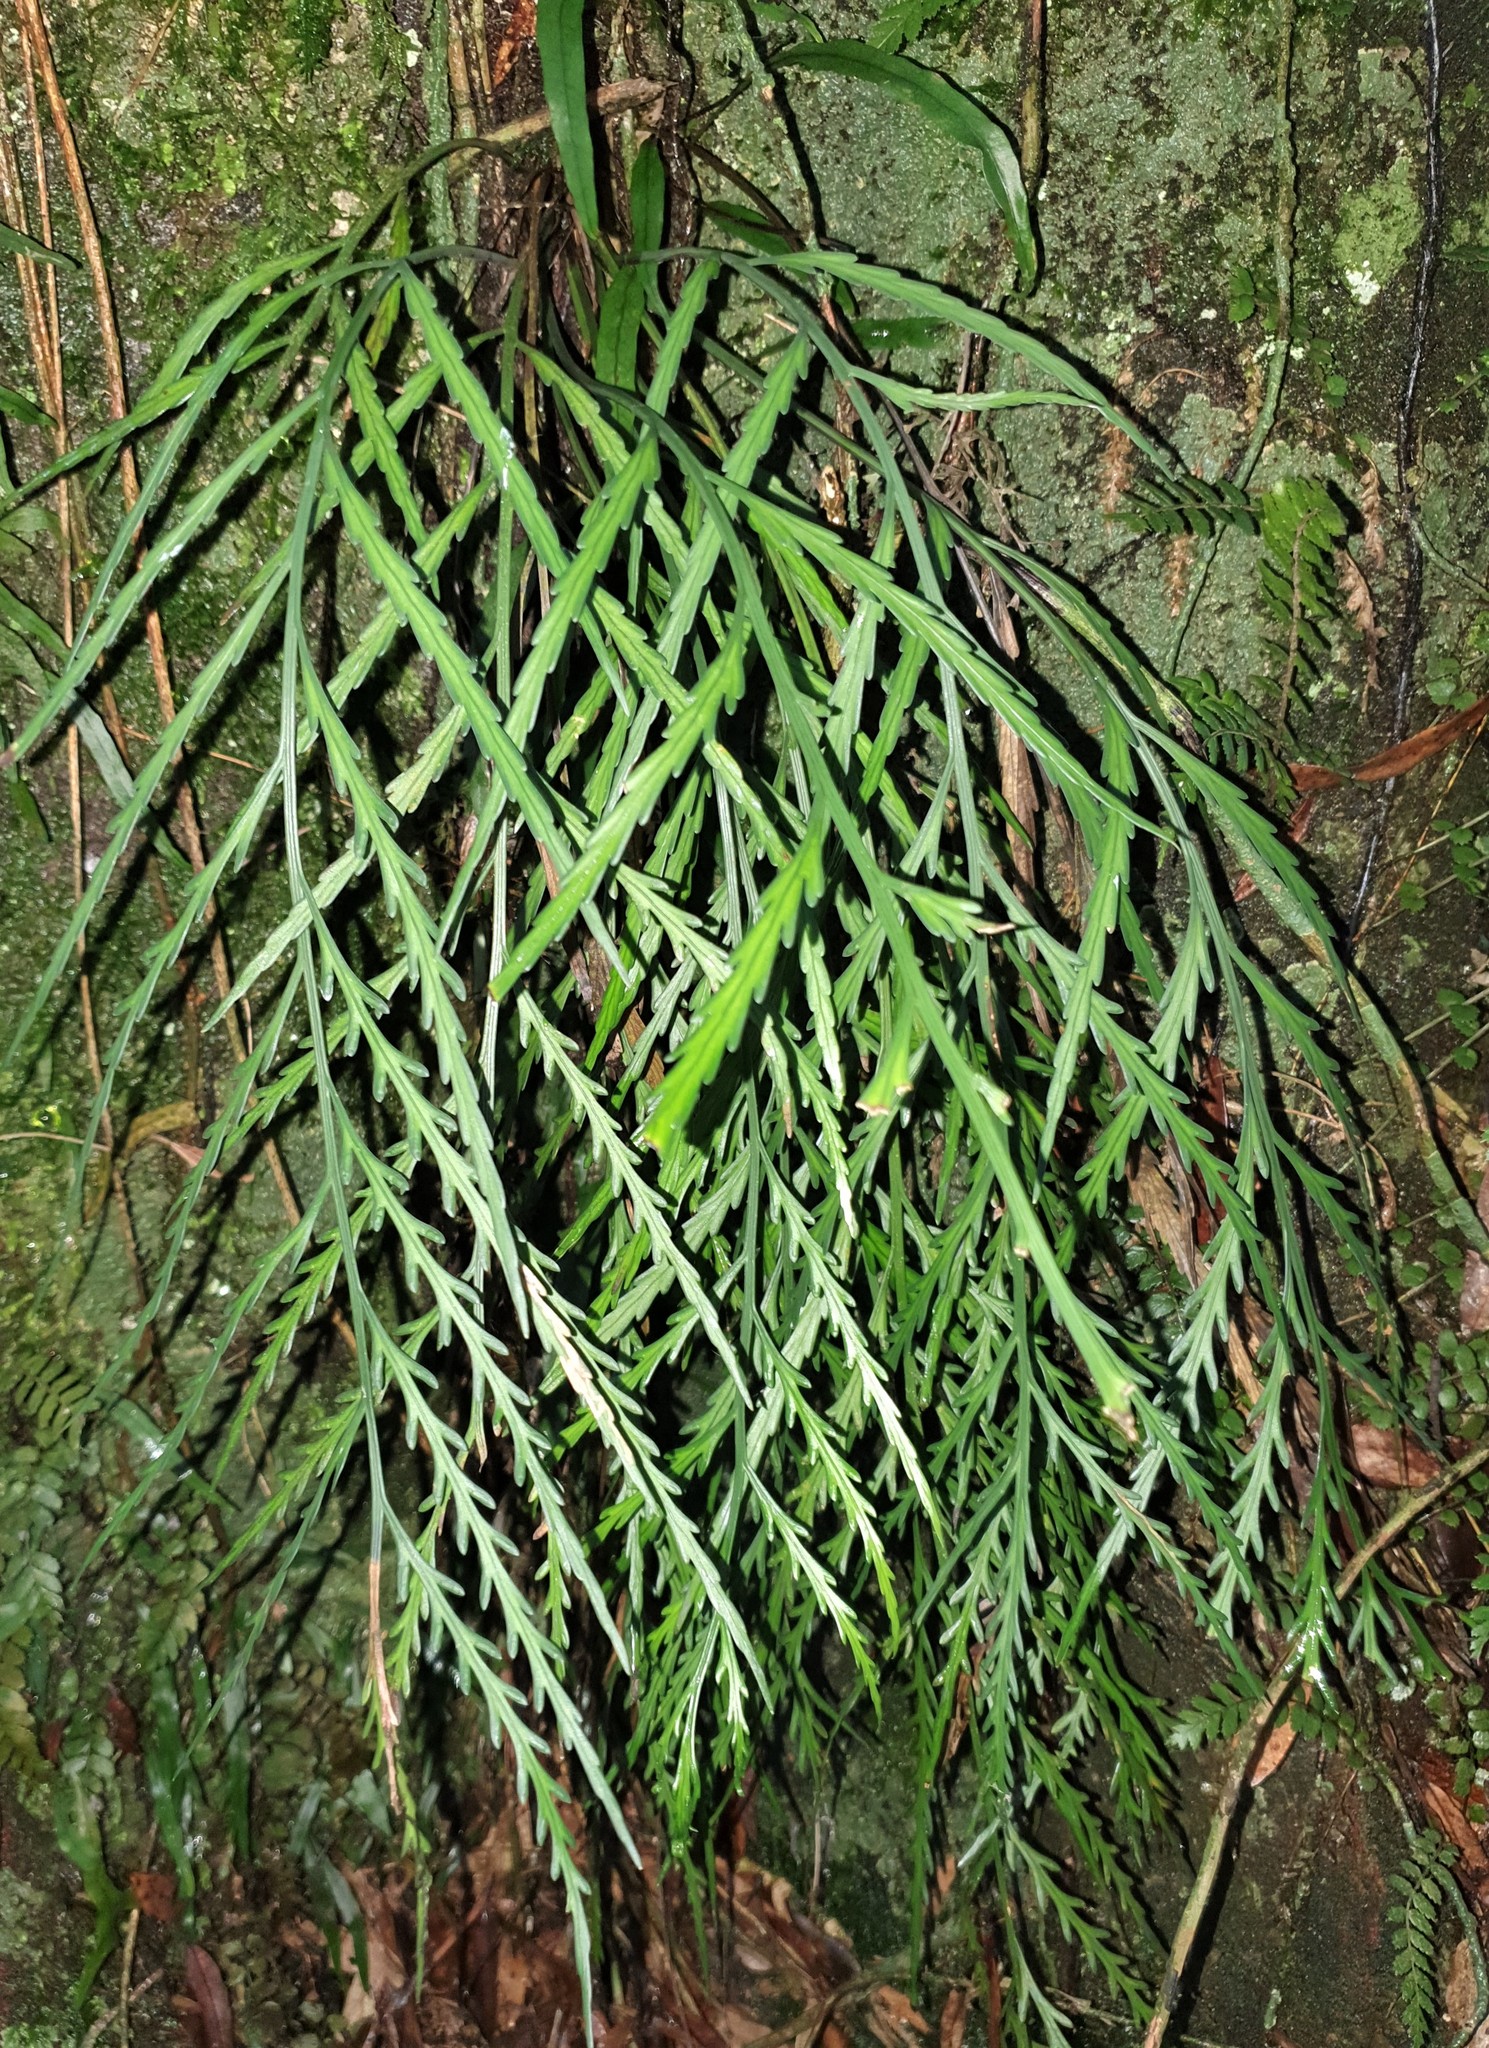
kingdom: Plantae
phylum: Tracheophyta
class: Polypodiopsida
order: Polypodiales
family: Aspleniaceae
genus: Asplenium
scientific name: Asplenium flaccidum
